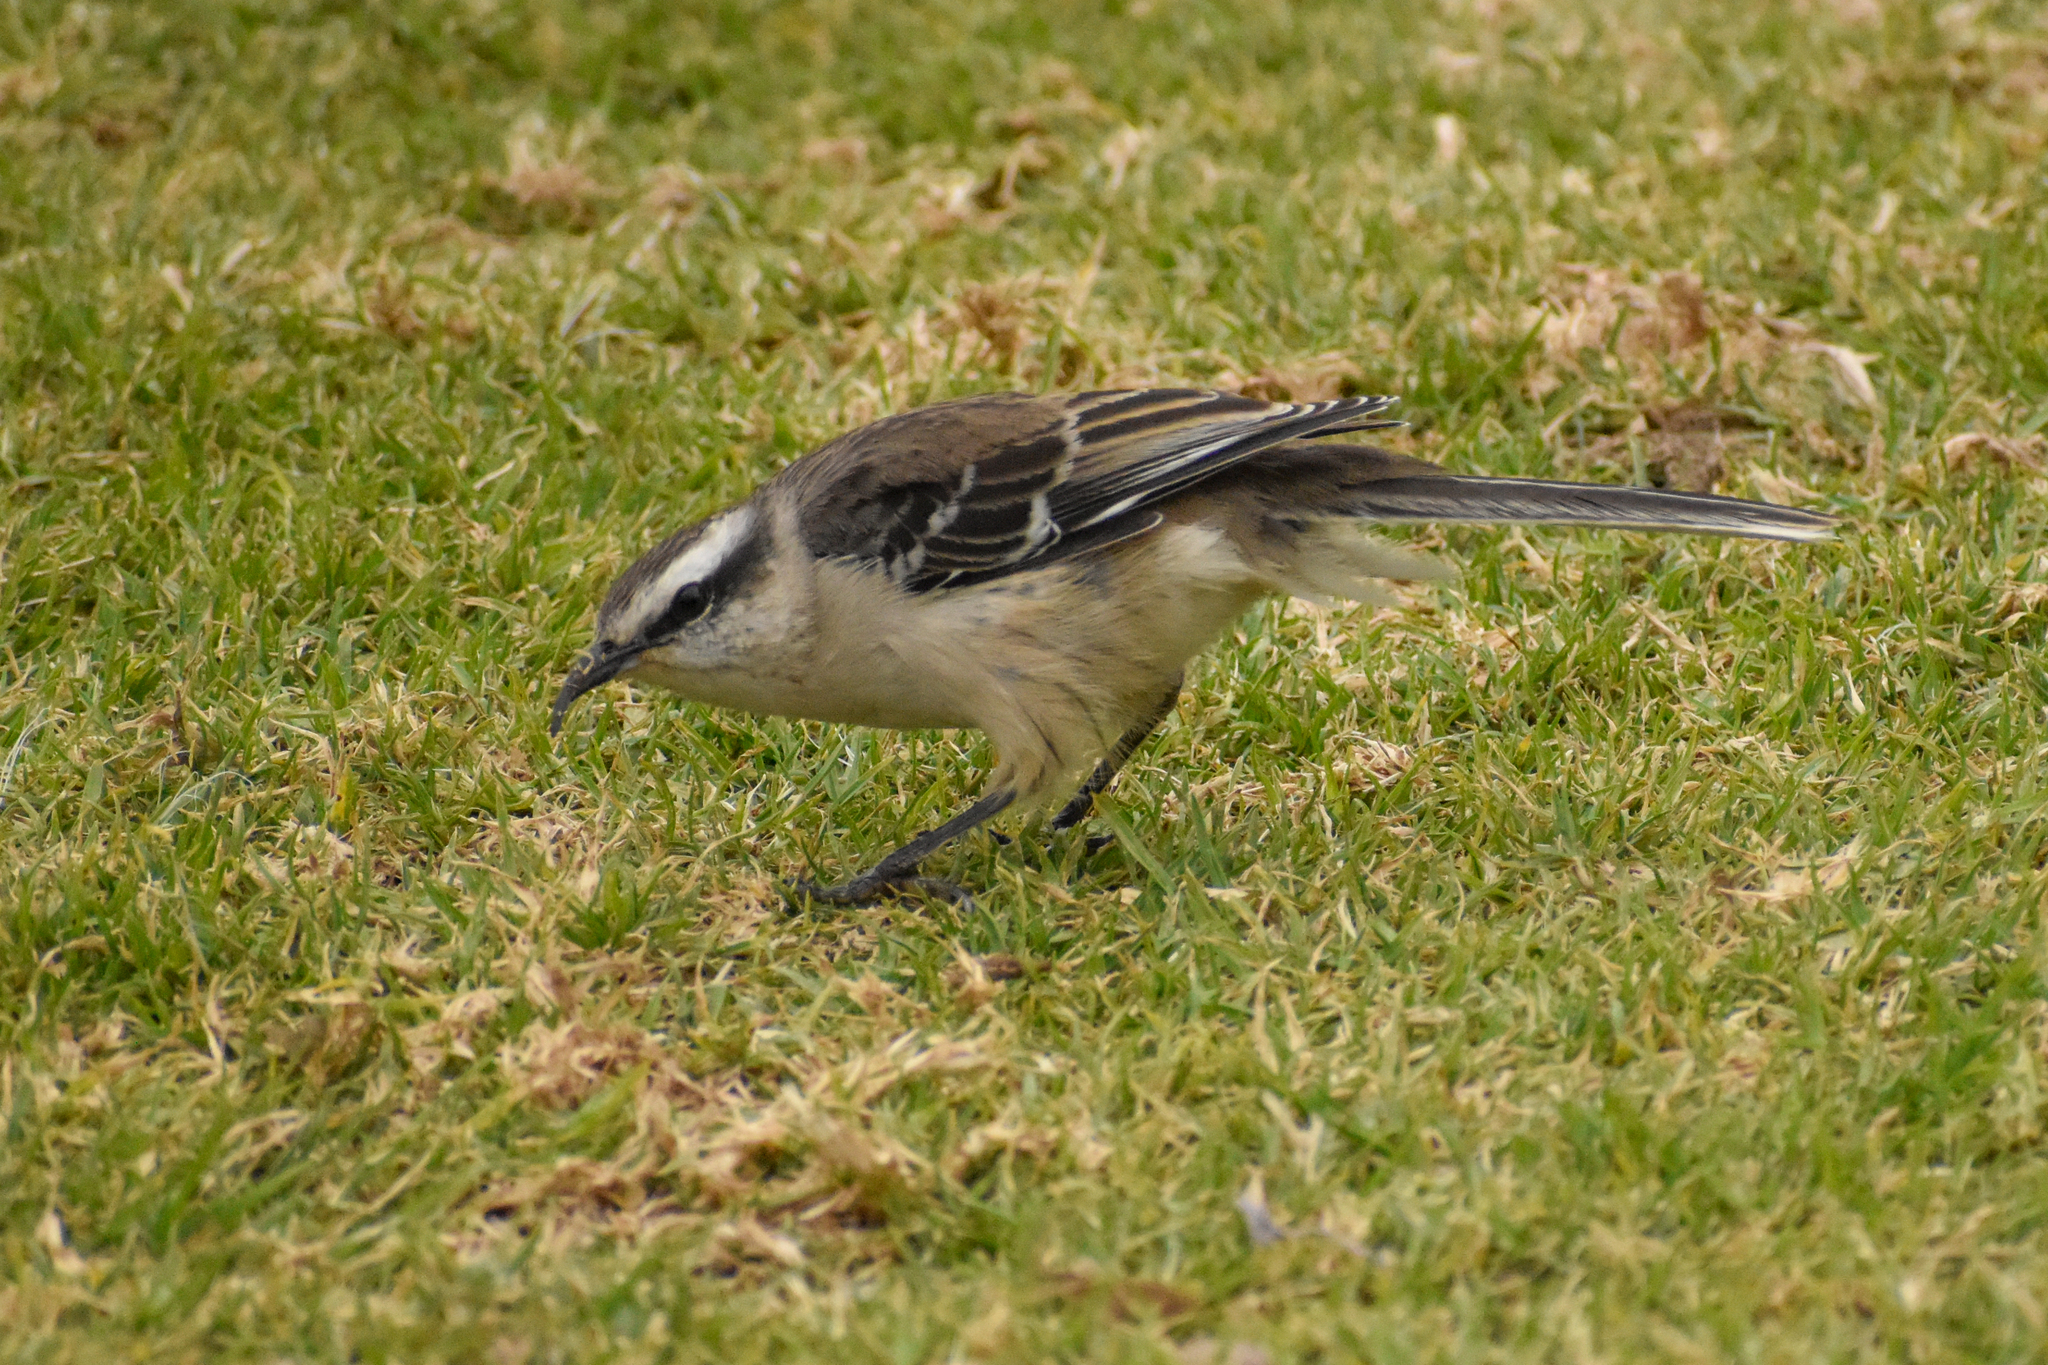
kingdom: Animalia
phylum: Chordata
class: Aves
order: Passeriformes
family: Mimidae
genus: Mimus
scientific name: Mimus saturninus
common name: Chalk-browed mockingbird
